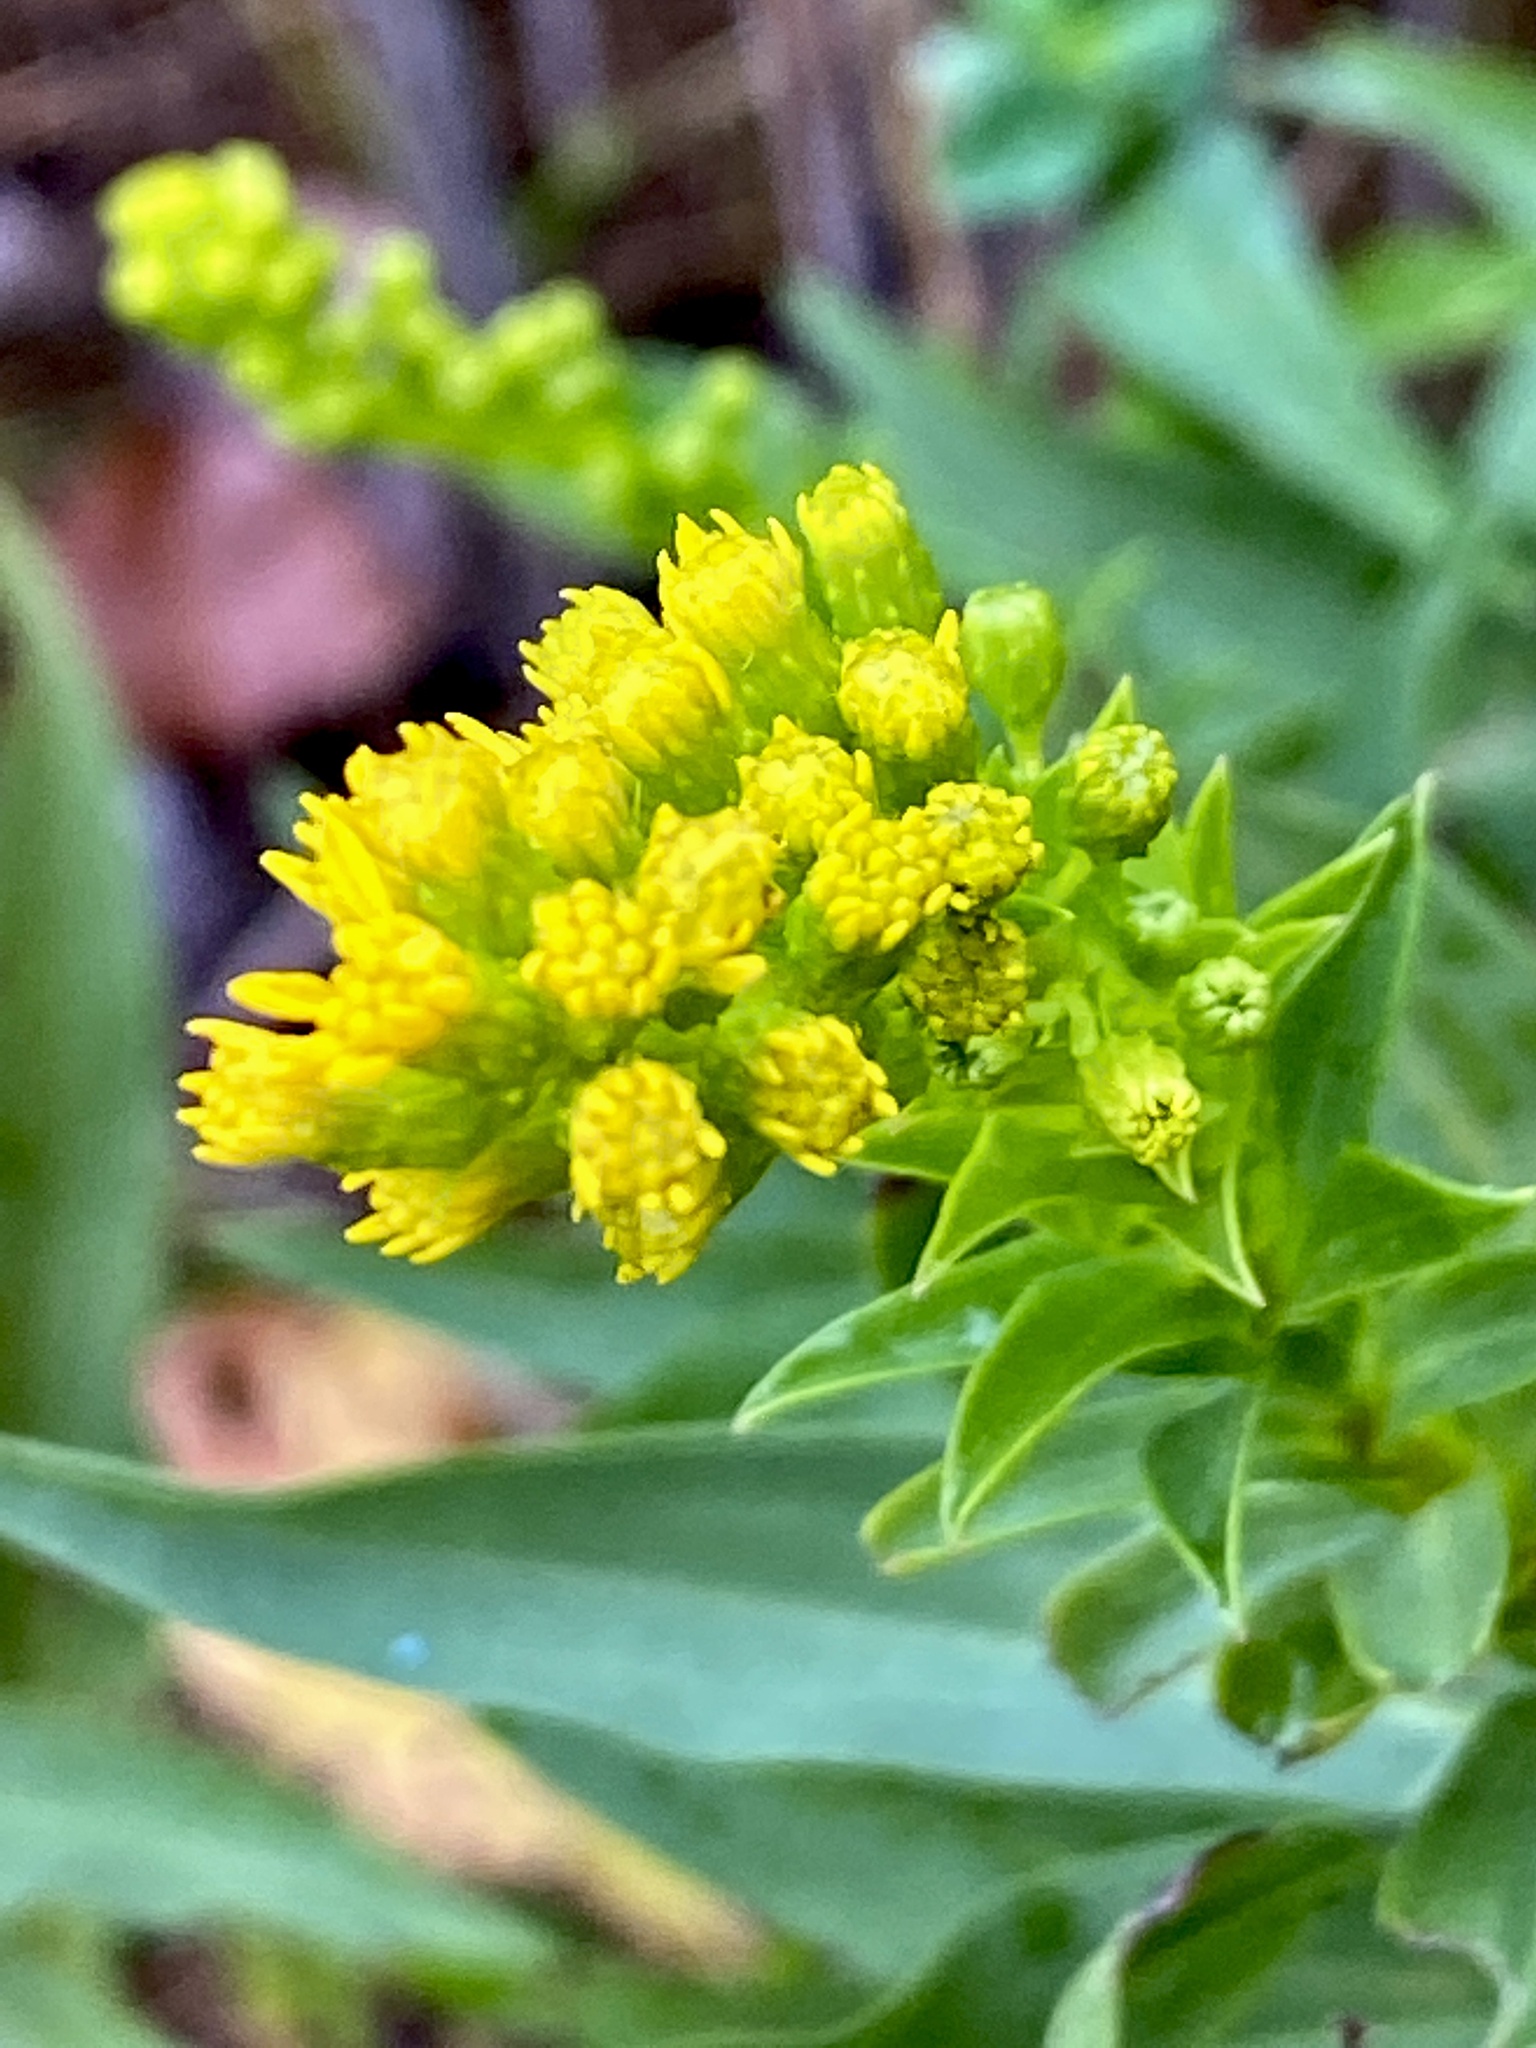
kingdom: Plantae
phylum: Tracheophyta
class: Magnoliopsida
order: Asterales
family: Asteraceae
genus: Solidago
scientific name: Solidago sempervirens
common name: Salt-marsh goldenrod
